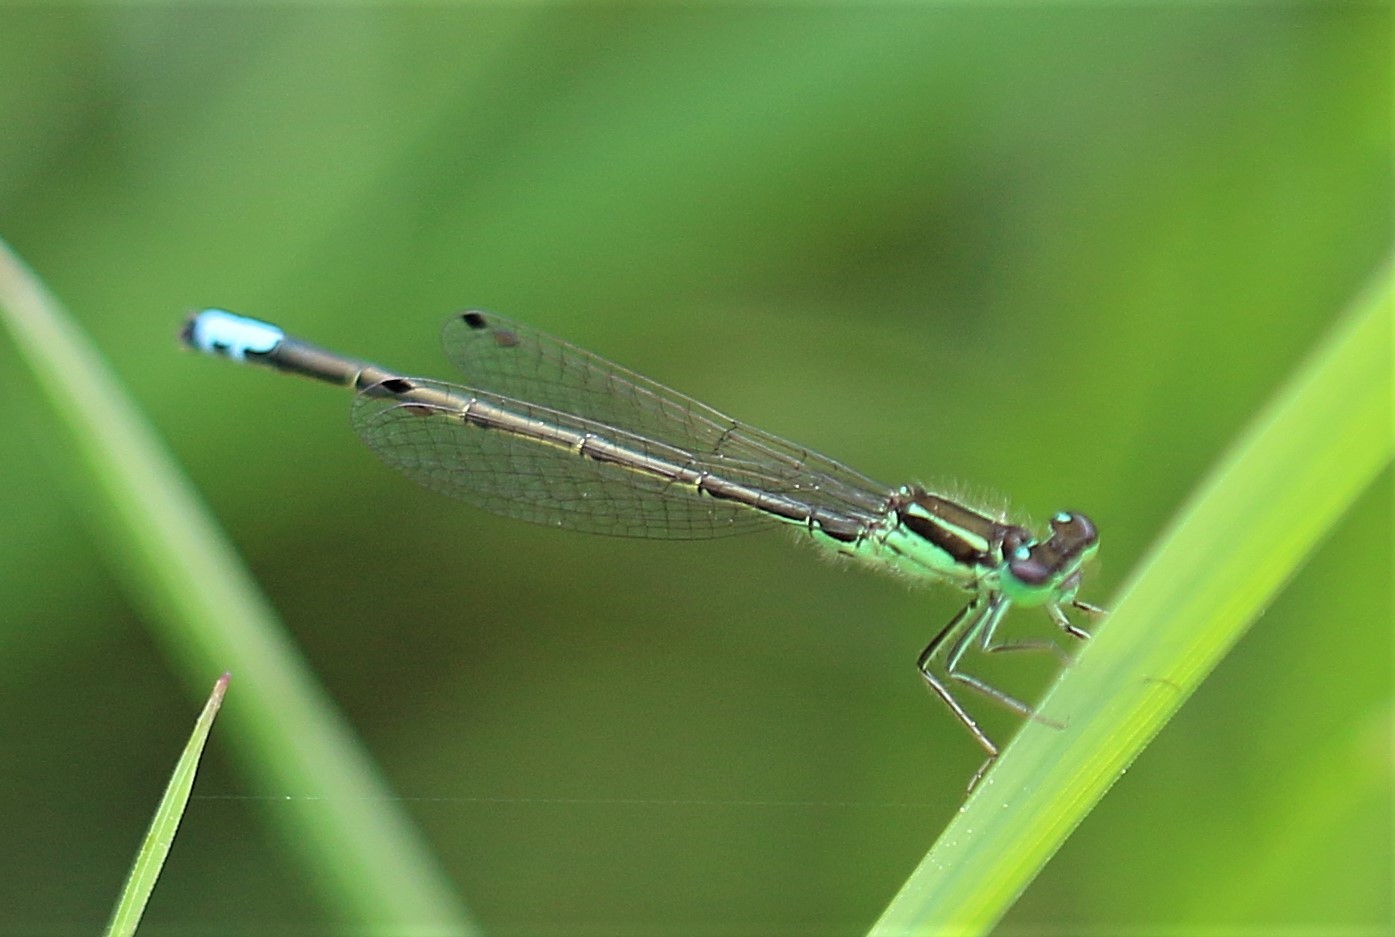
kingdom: Animalia
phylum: Arthropoda
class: Insecta
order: Odonata
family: Coenagrionidae
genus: Ischnura
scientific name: Ischnura verticalis
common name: Eastern forktail
